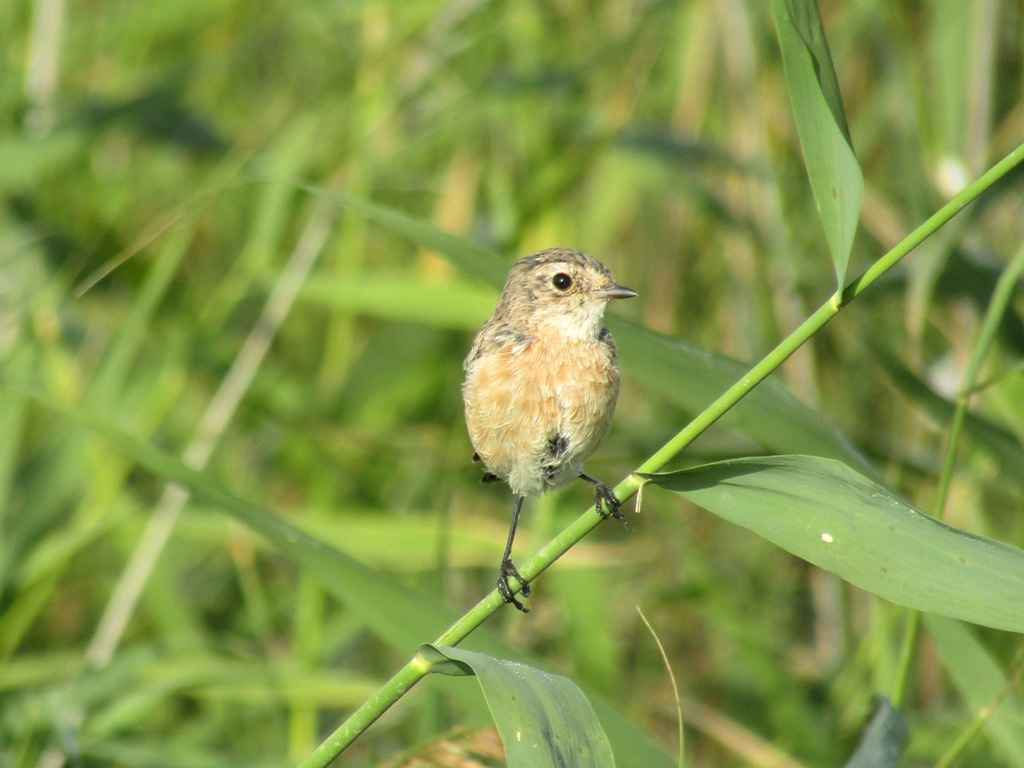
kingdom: Animalia
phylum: Chordata
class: Aves
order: Passeriformes
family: Muscicapidae
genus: Saxicola
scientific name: Saxicola maurus
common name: Siberian stonechat
